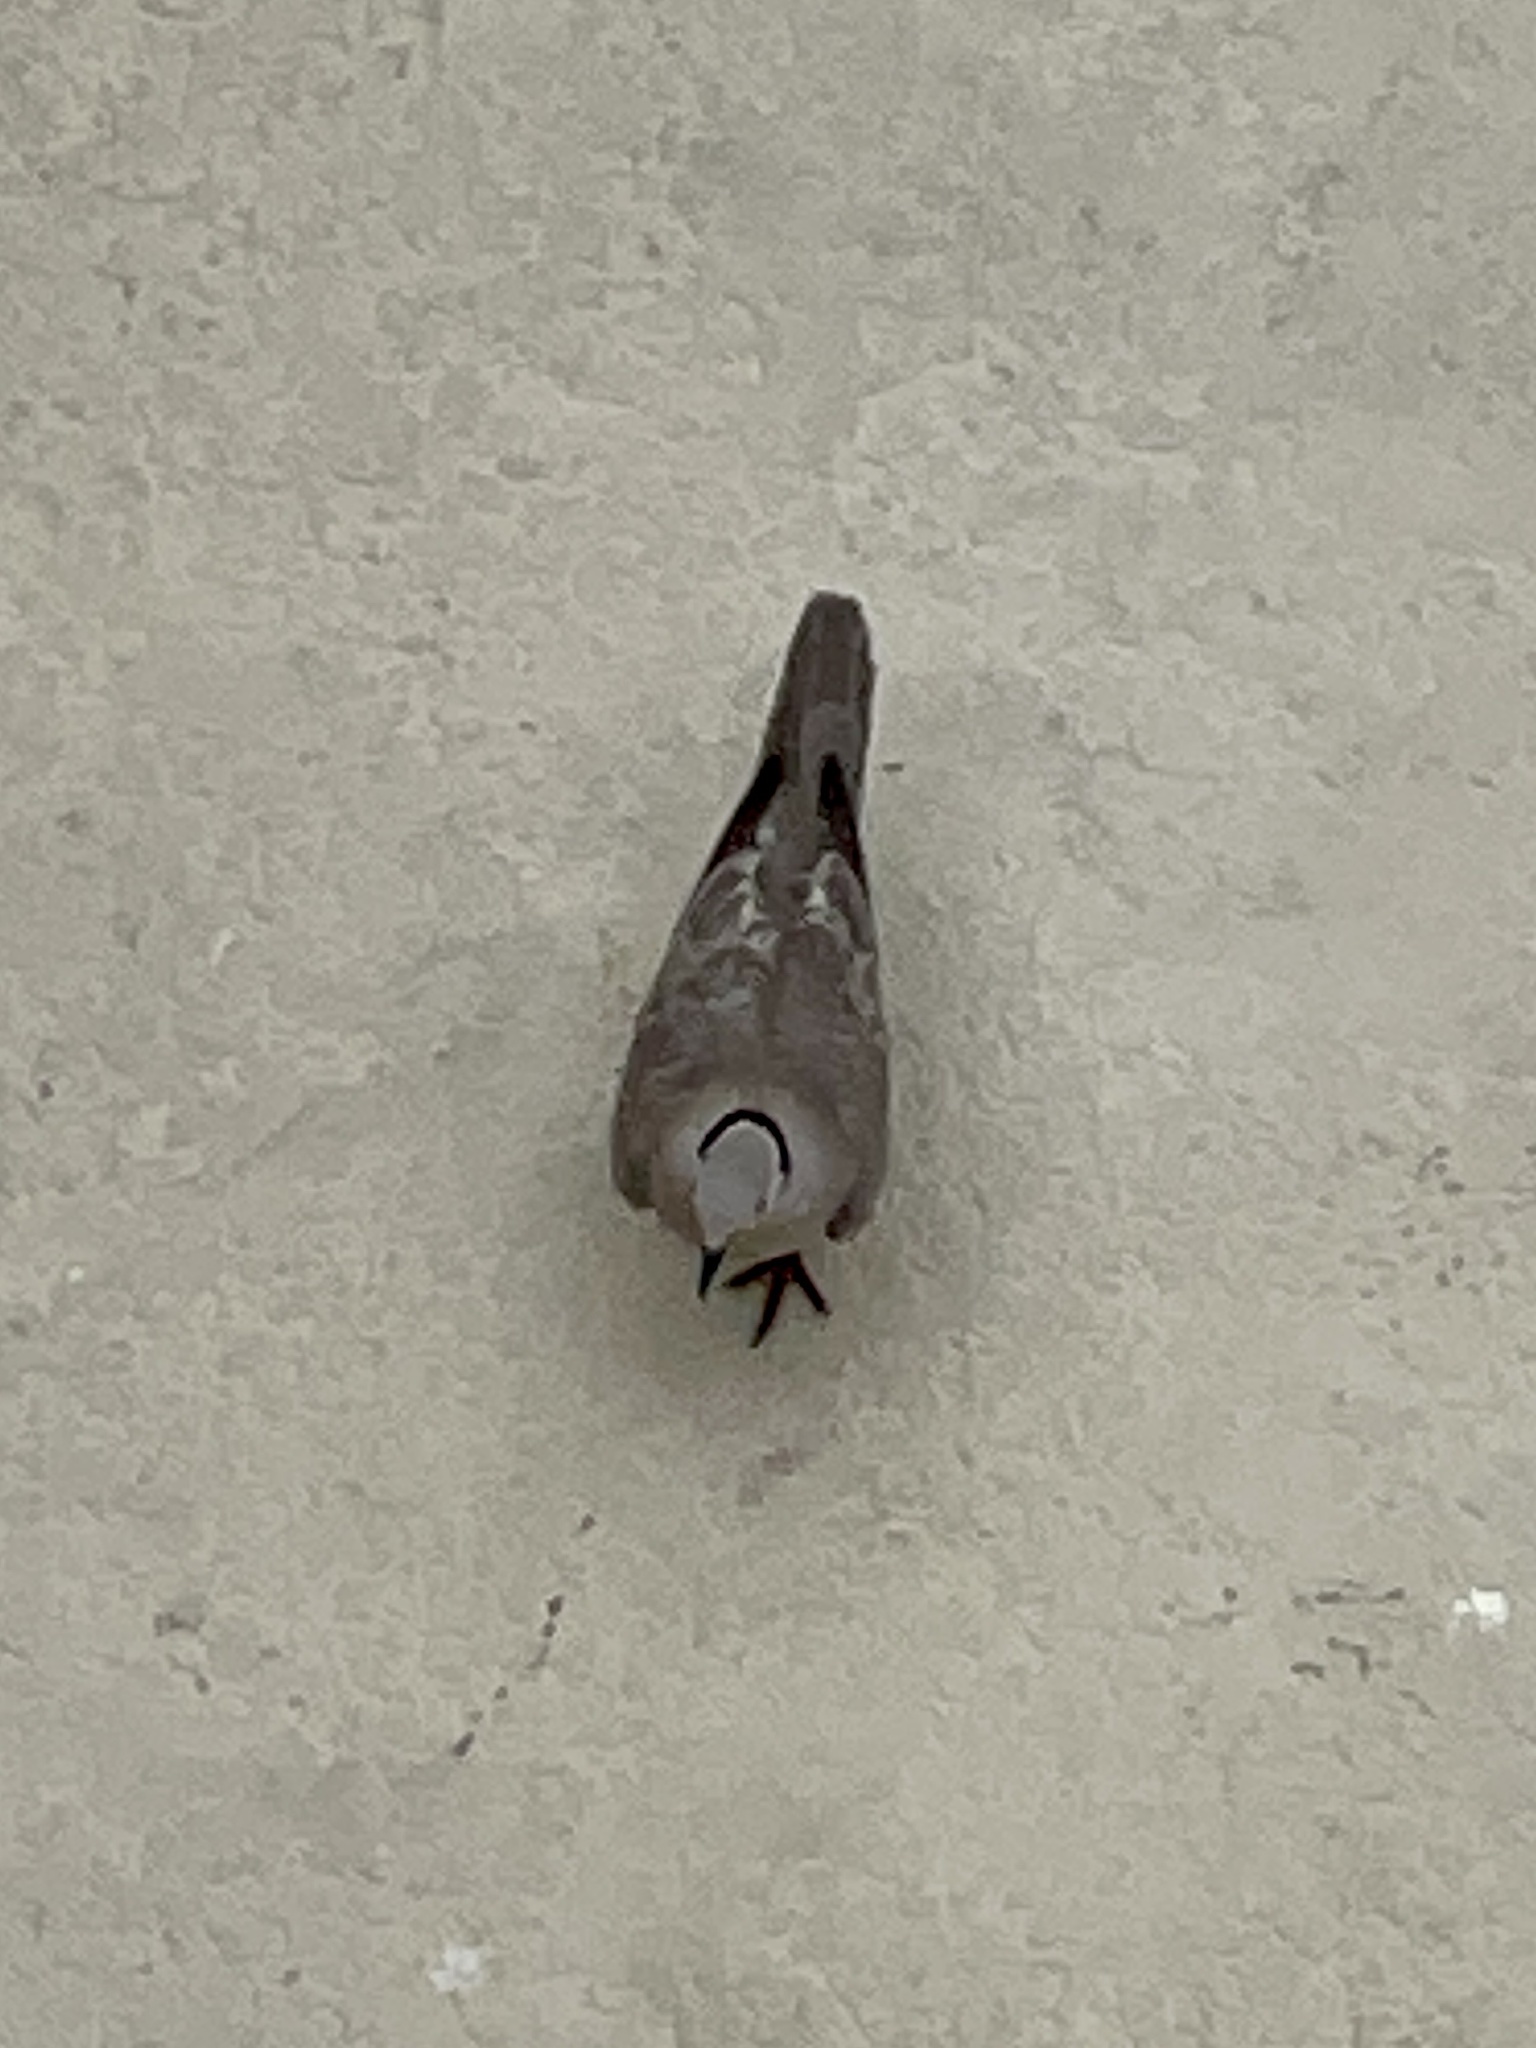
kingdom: Animalia
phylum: Chordata
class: Aves
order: Columbiformes
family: Columbidae
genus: Streptopelia
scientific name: Streptopelia decaocto
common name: Eurasian collared dove
